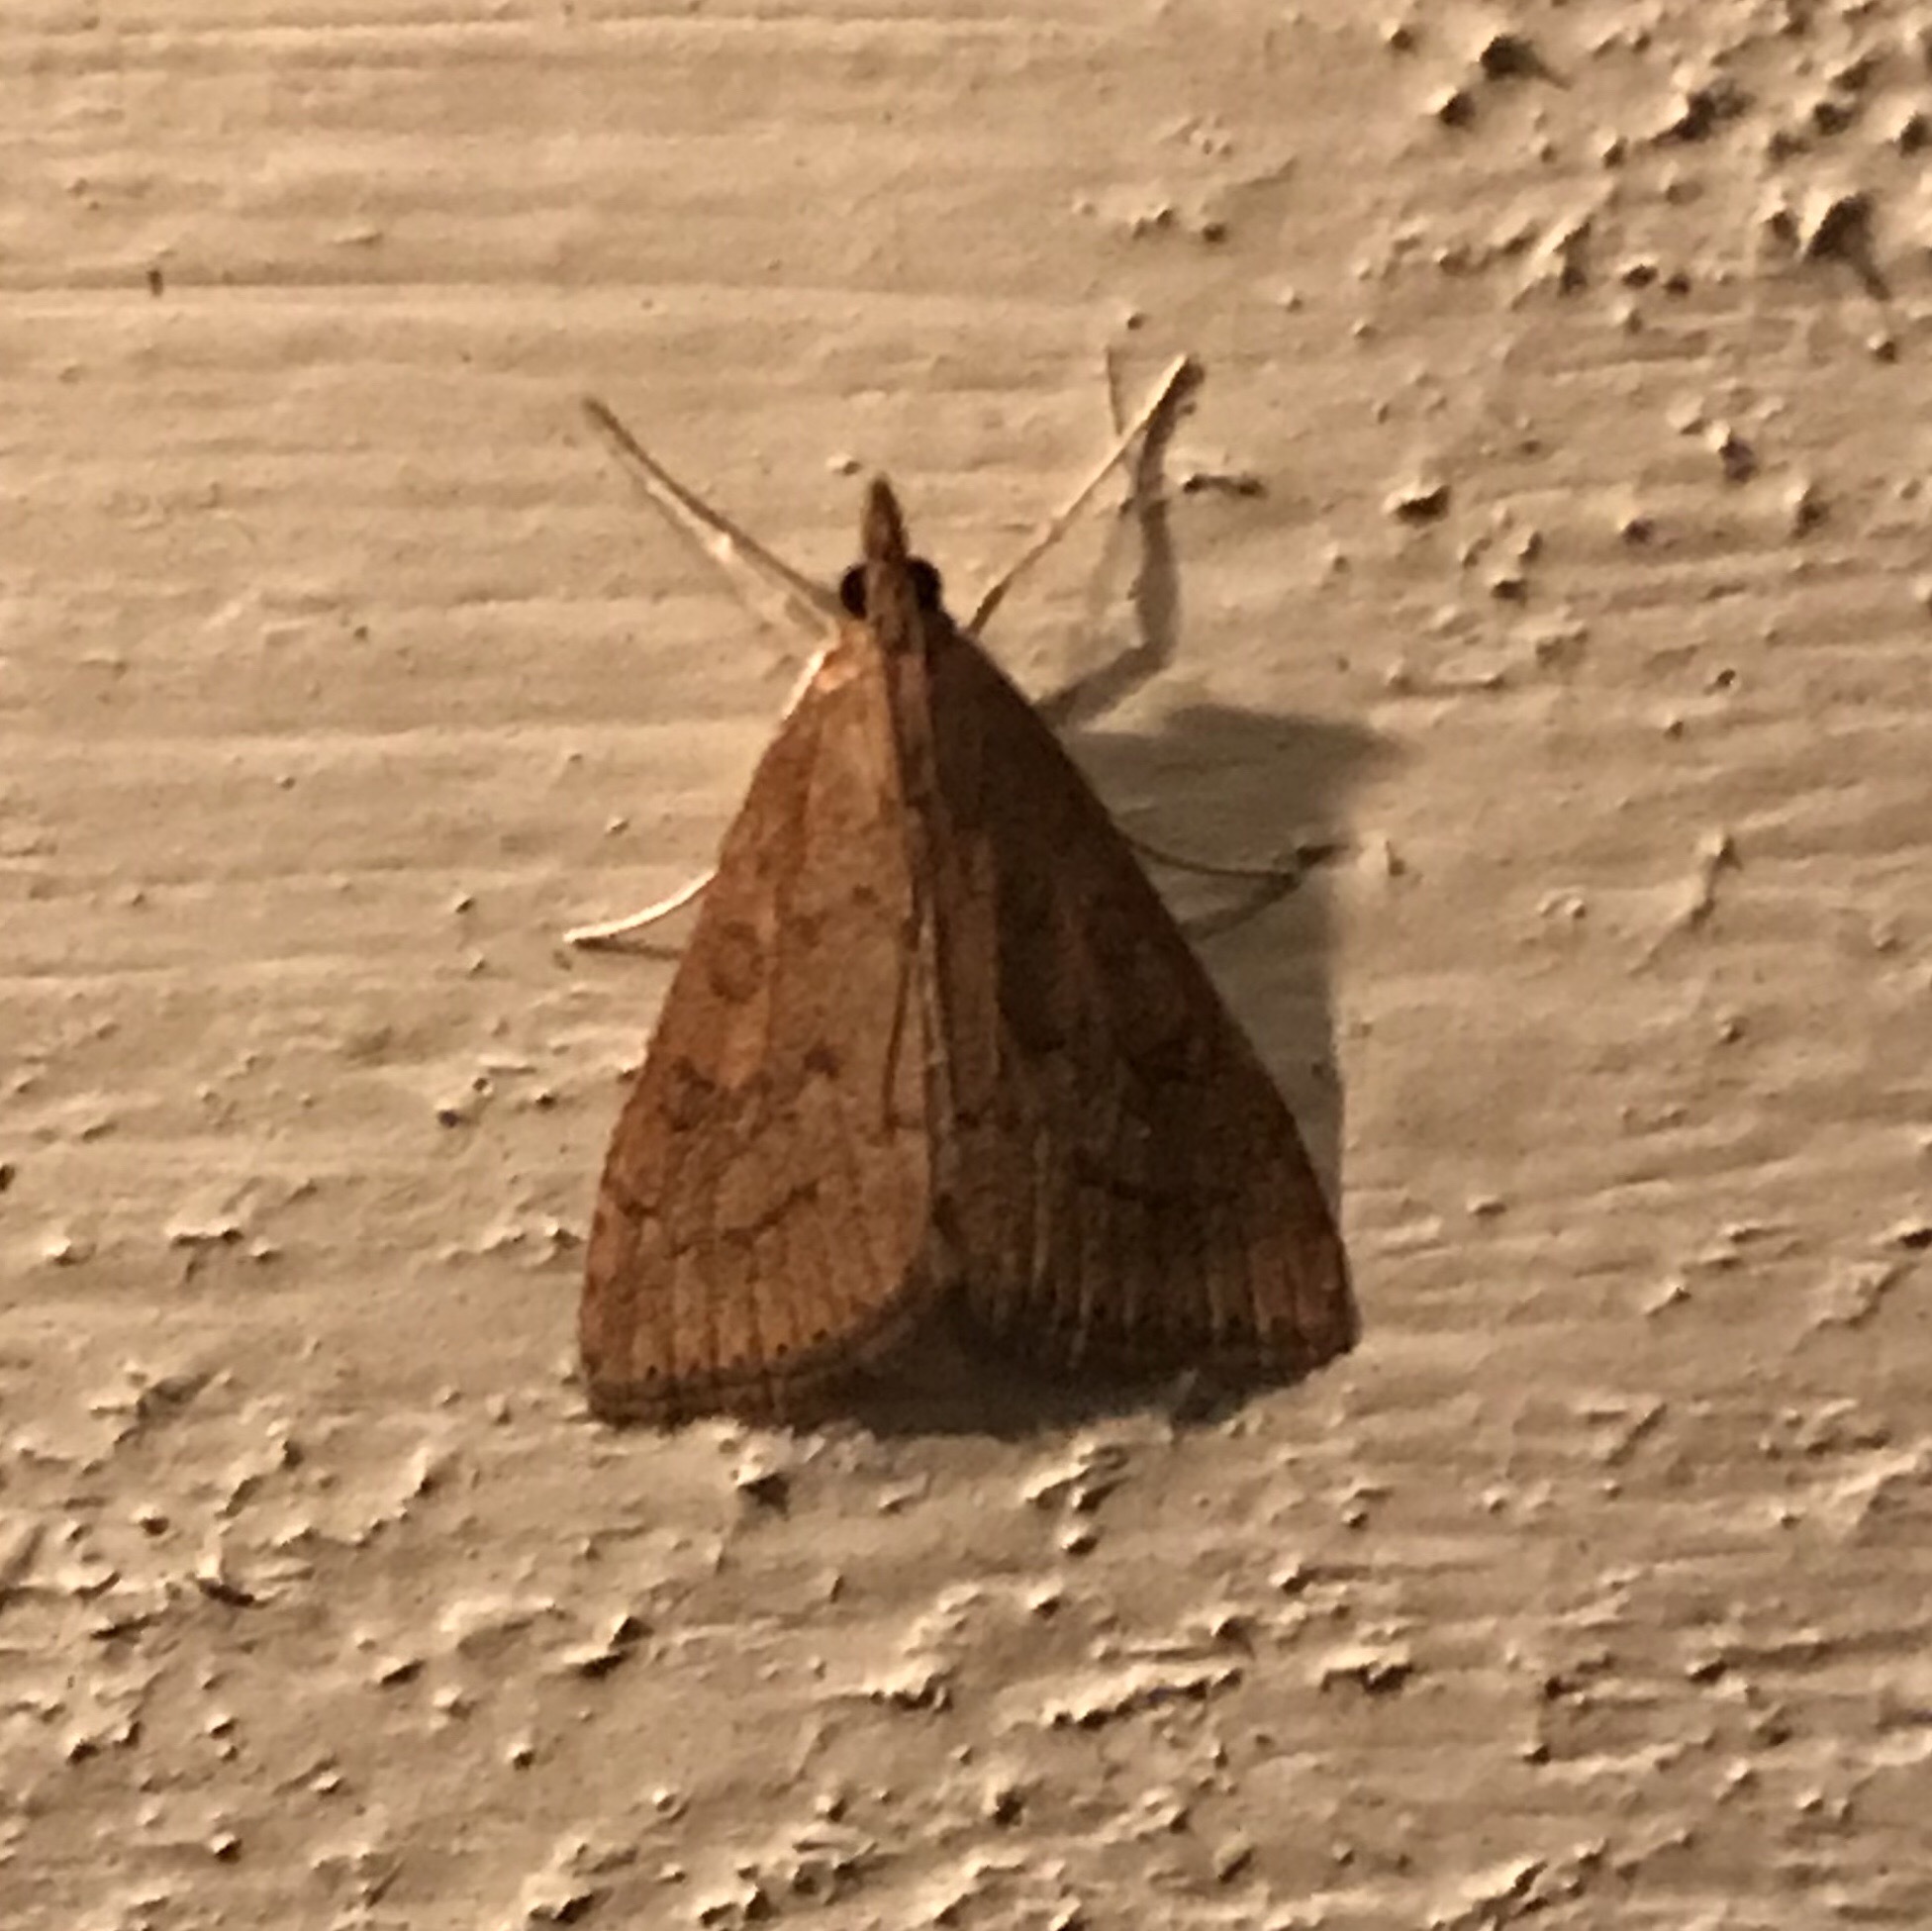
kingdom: Animalia
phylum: Arthropoda
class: Insecta
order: Lepidoptera
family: Crambidae
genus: Udea
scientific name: Udea rubigalis
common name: Celery leaftier moth
